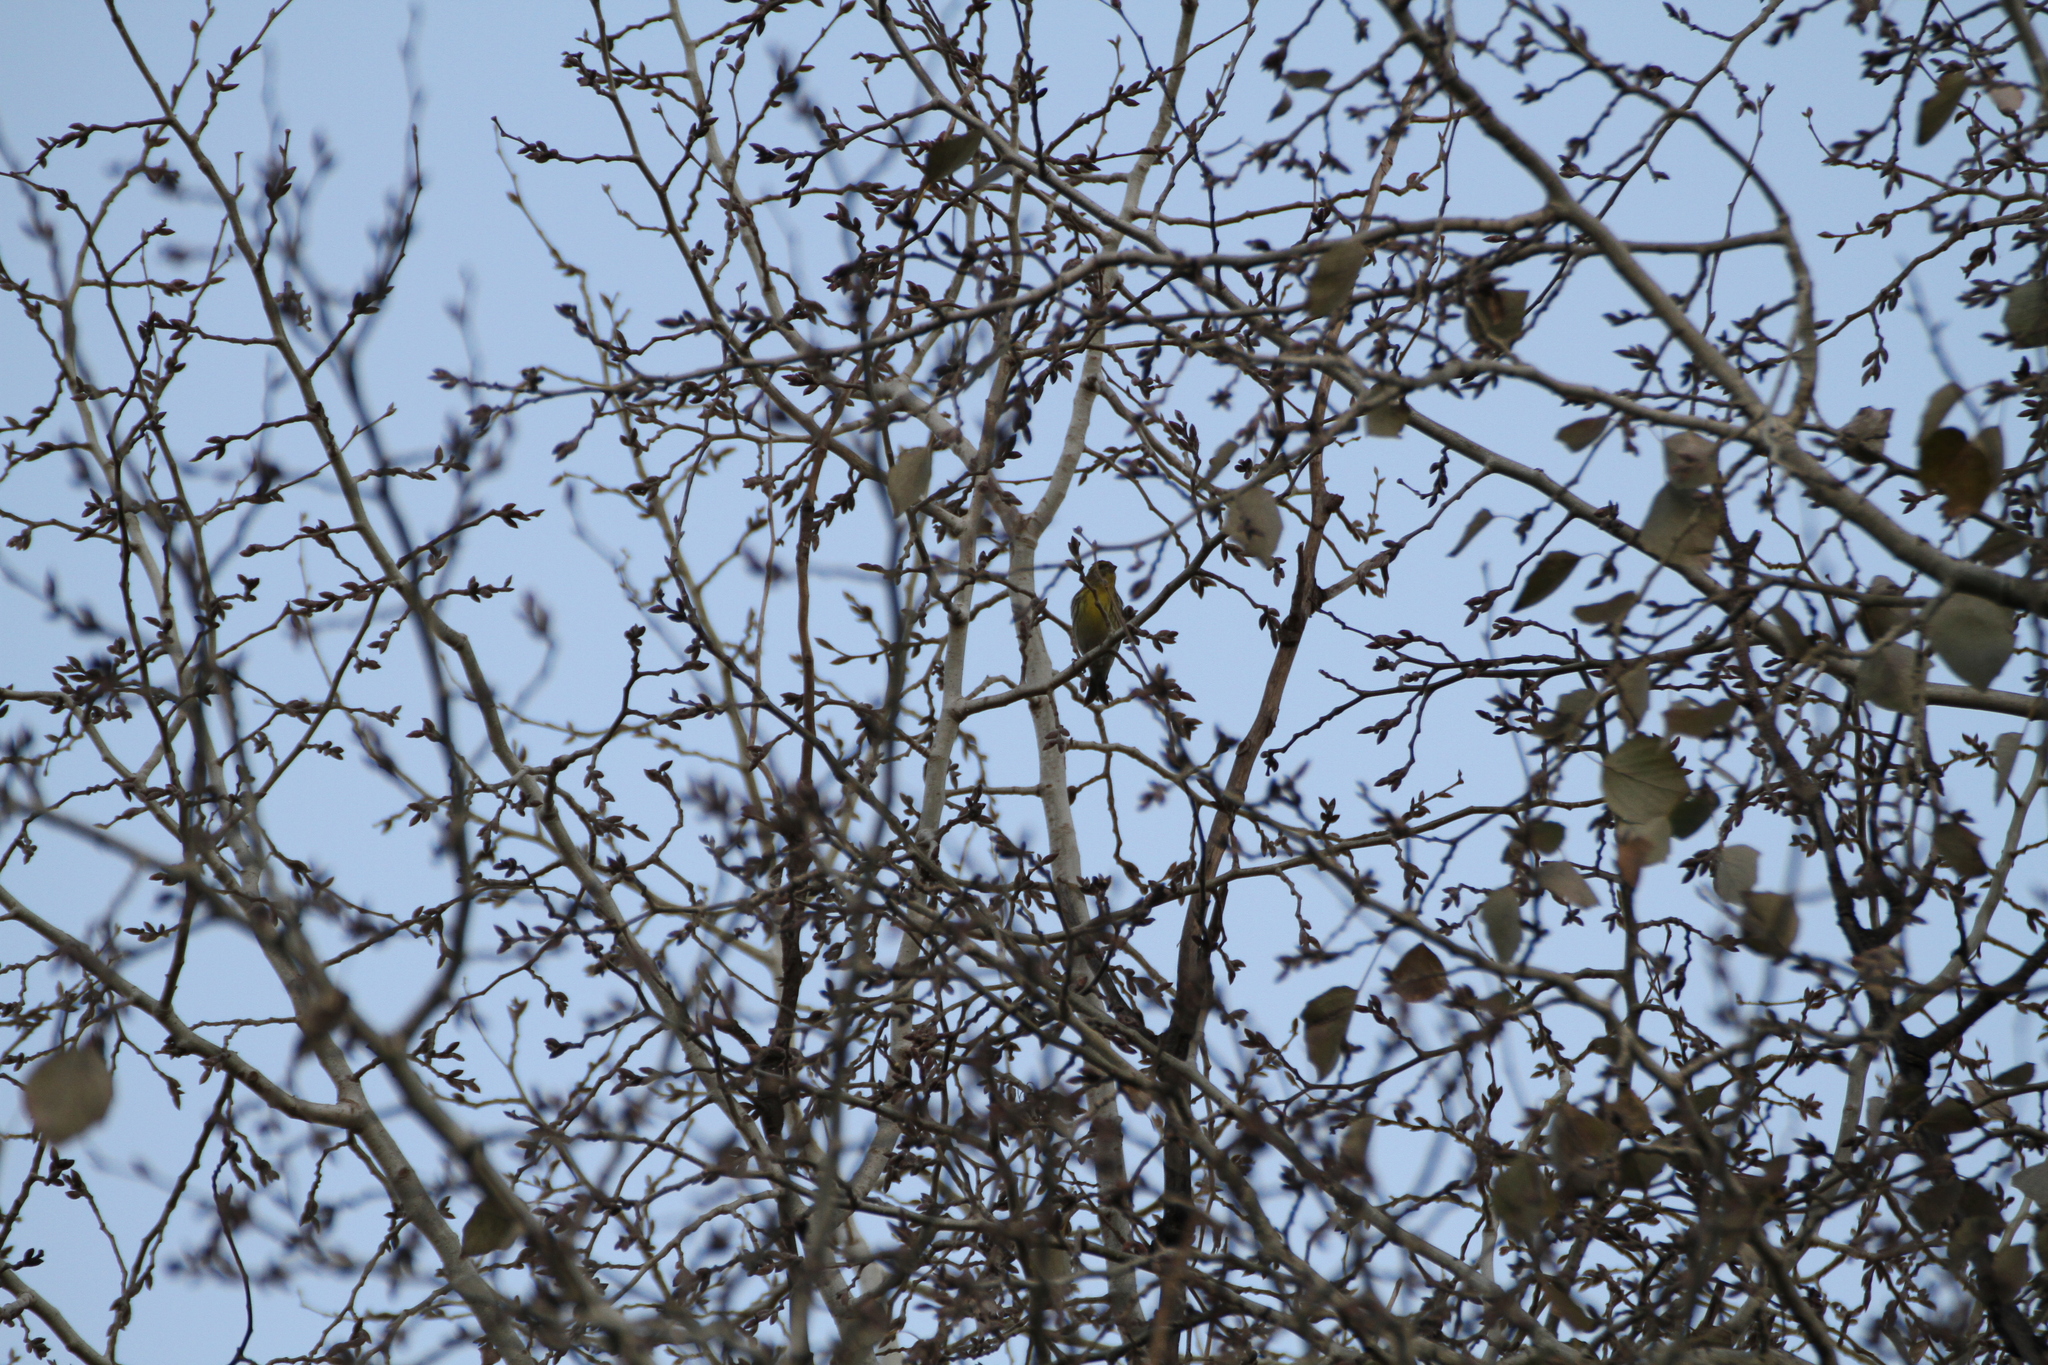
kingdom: Animalia
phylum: Chordata
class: Aves
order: Passeriformes
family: Fringillidae
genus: Serinus
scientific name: Serinus serinus
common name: European serin
